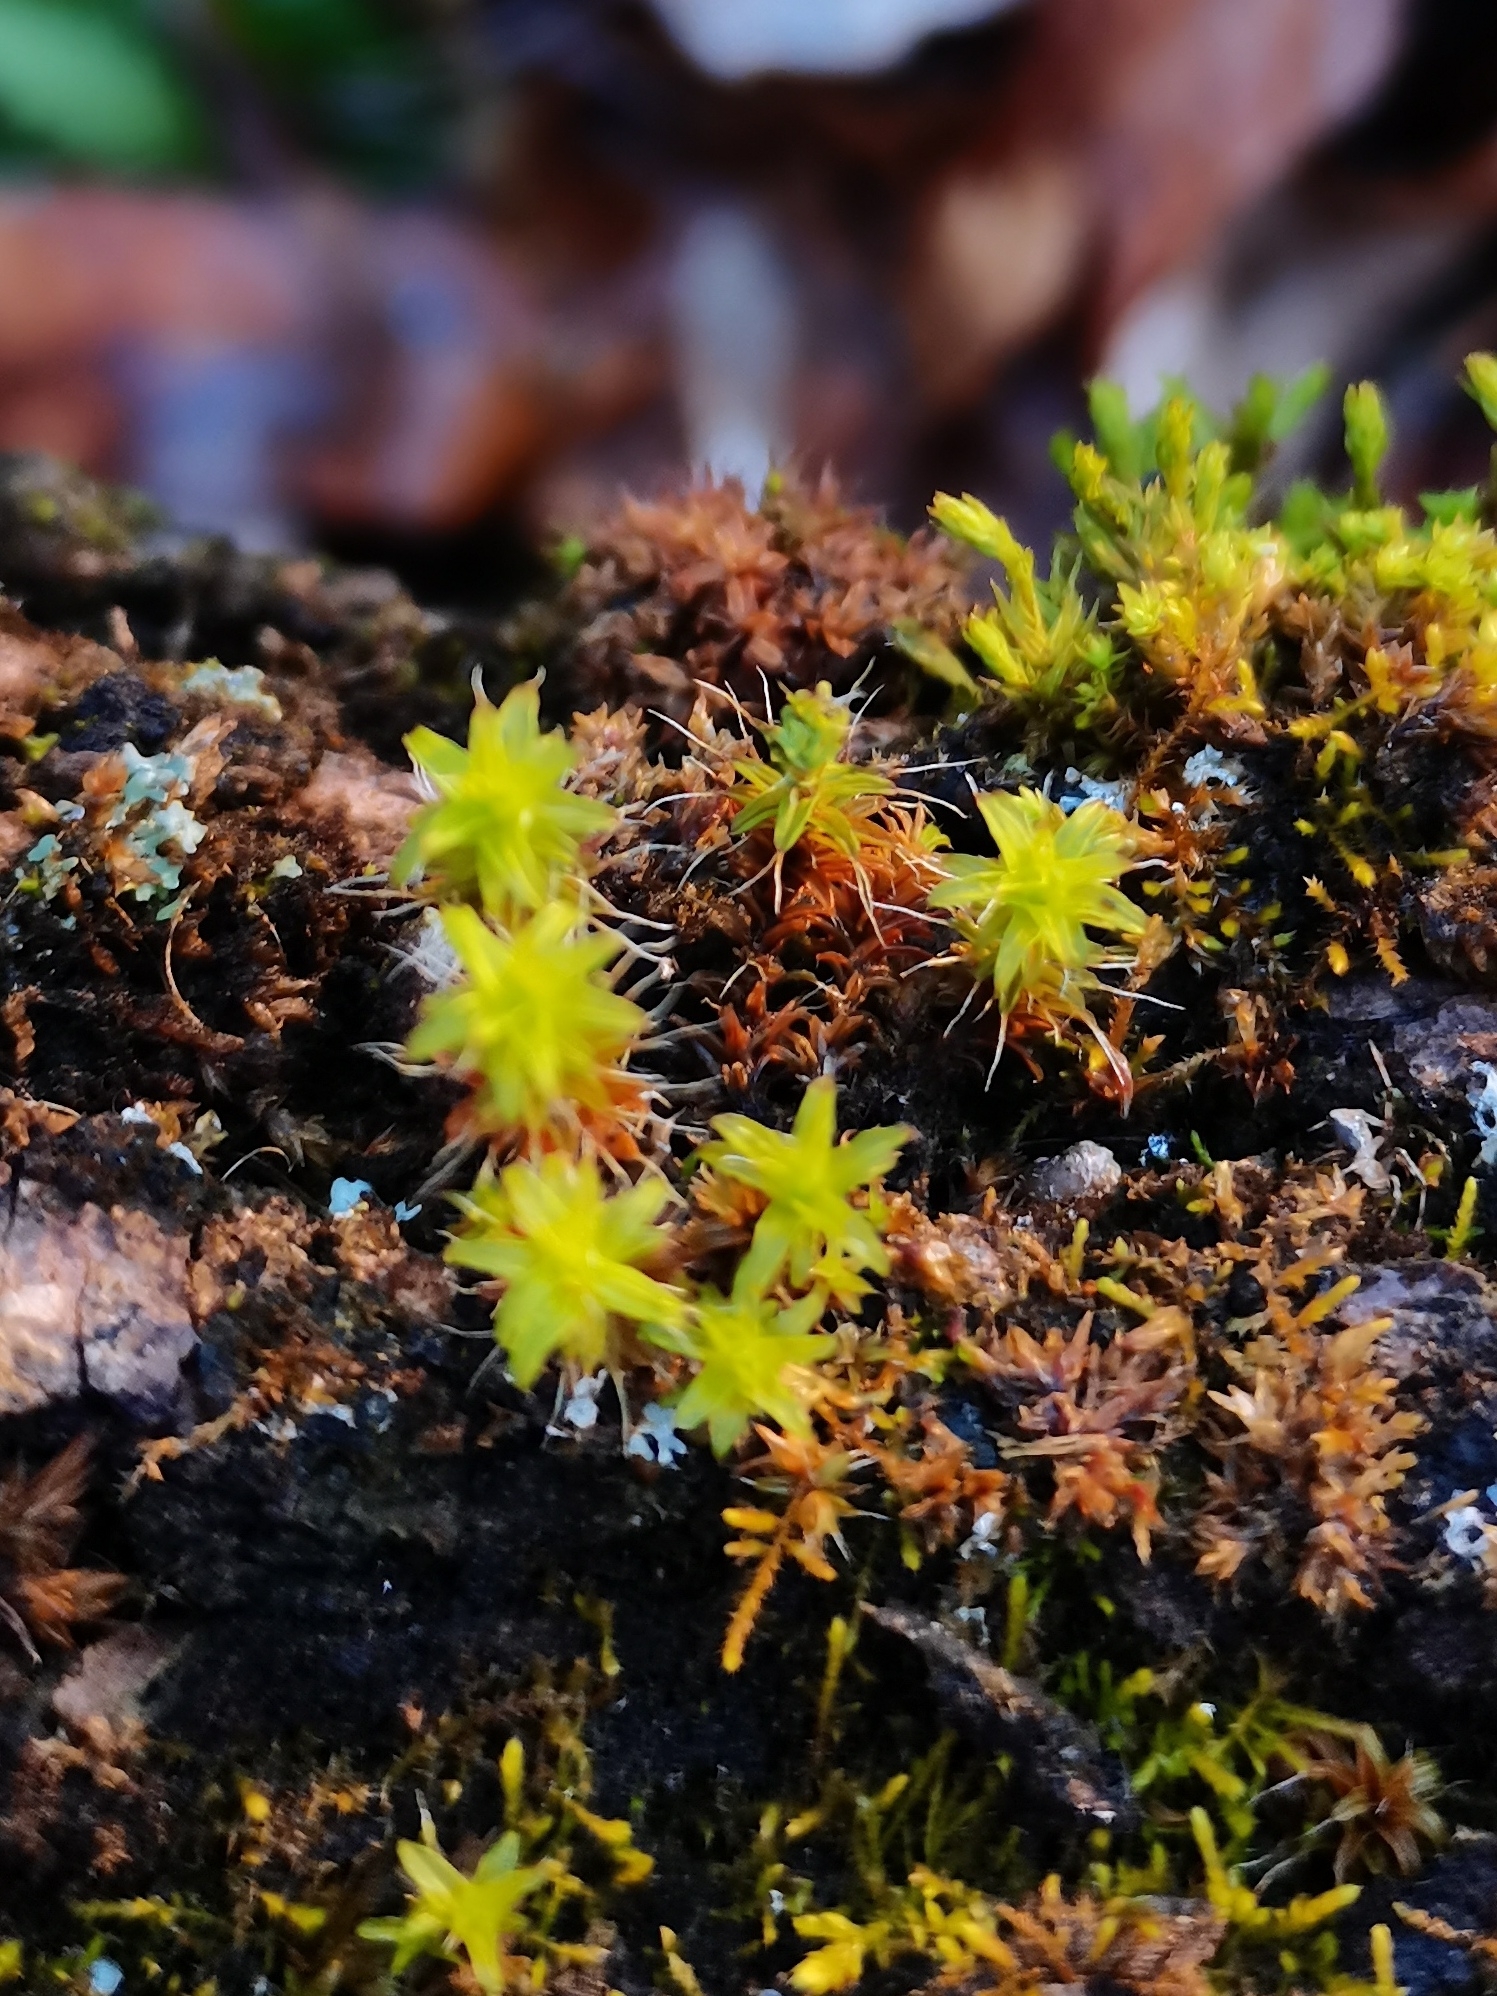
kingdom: Plantae
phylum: Bryophyta
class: Bryopsida
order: Pottiales
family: Pottiaceae
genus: Syntrichia
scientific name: Syntrichia ruralis
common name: Sidewalk screw moss
